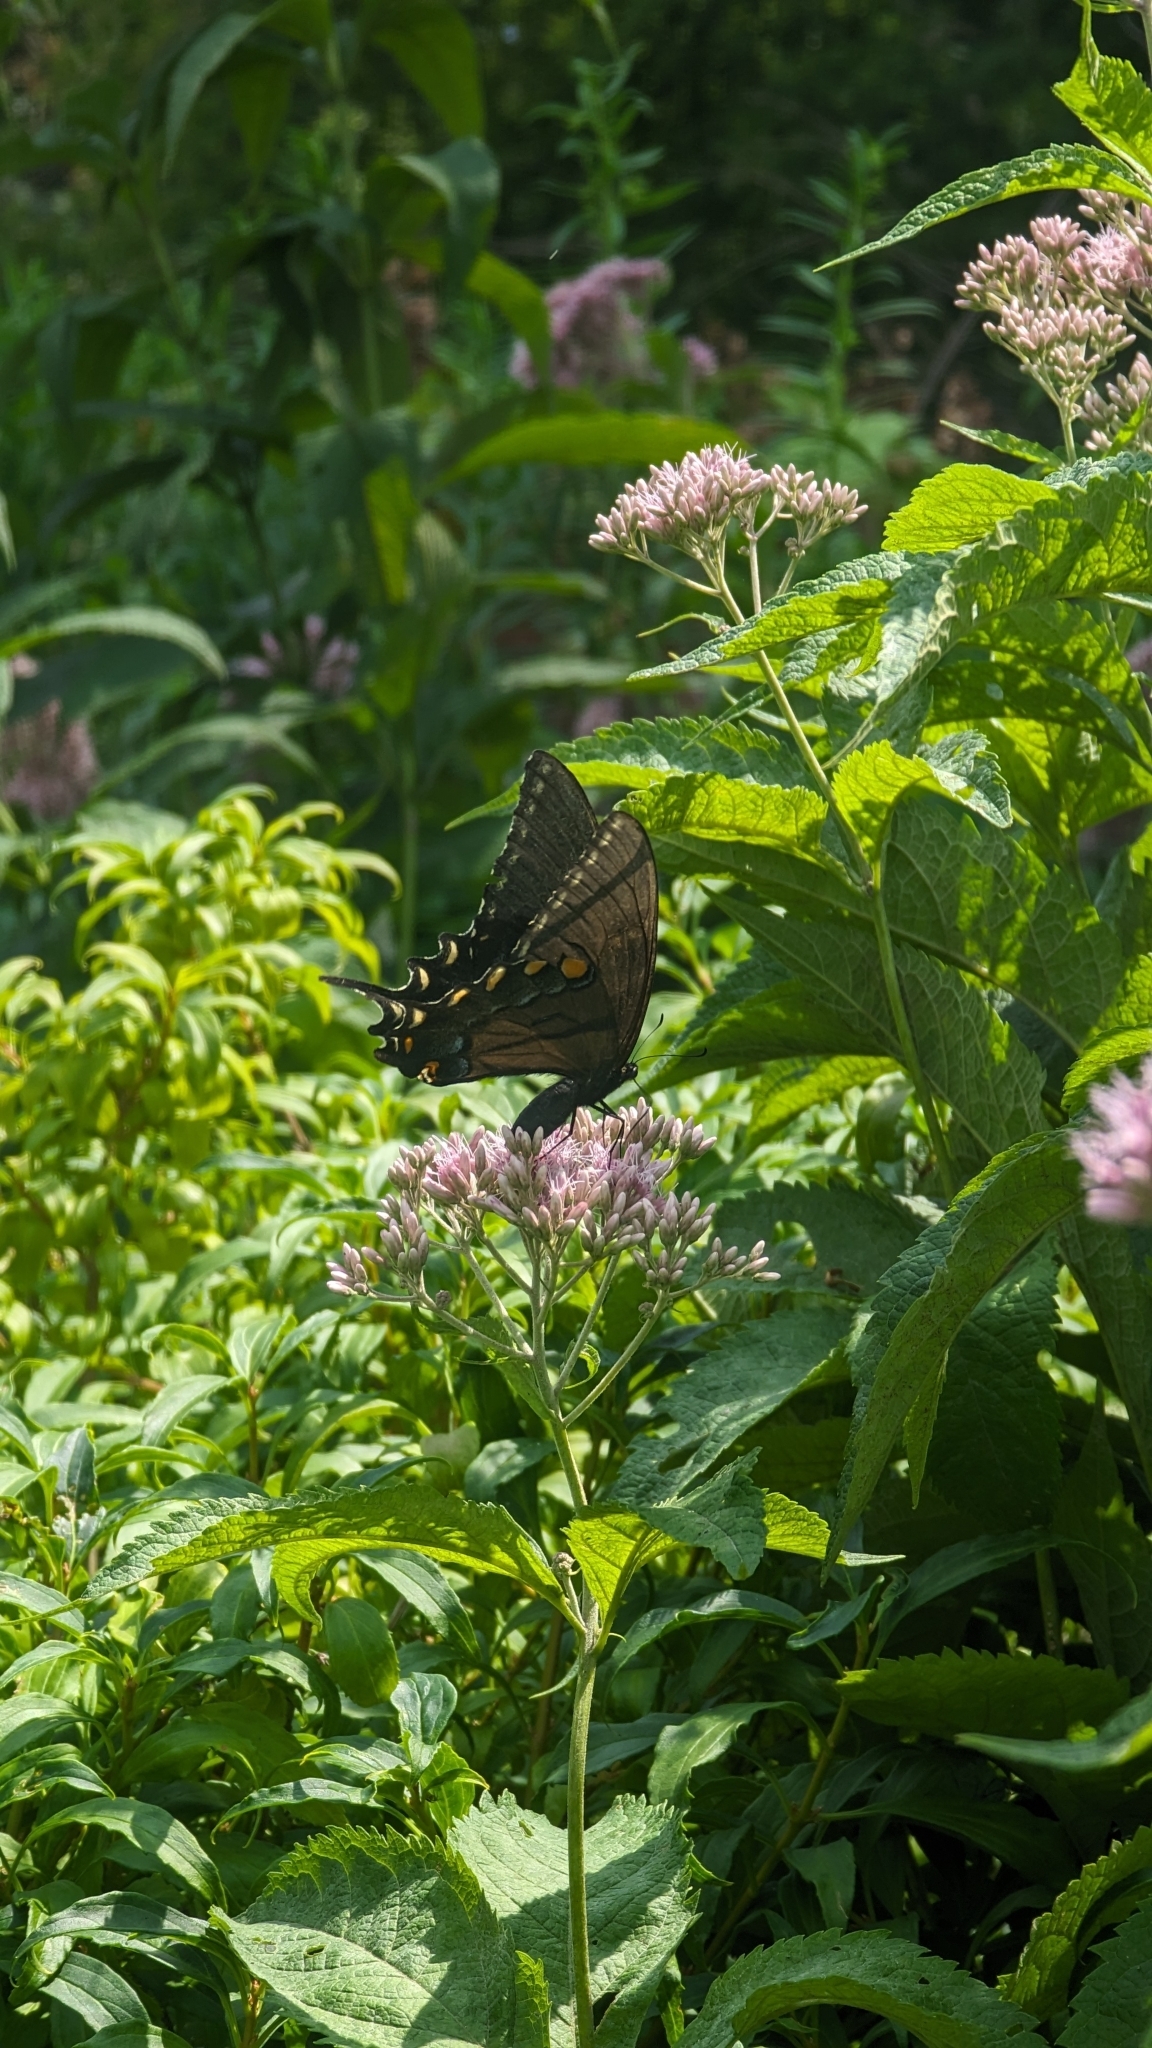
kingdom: Animalia
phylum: Arthropoda
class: Insecta
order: Lepidoptera
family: Papilionidae
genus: Papilio
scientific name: Papilio glaucus
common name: Tiger swallowtail
